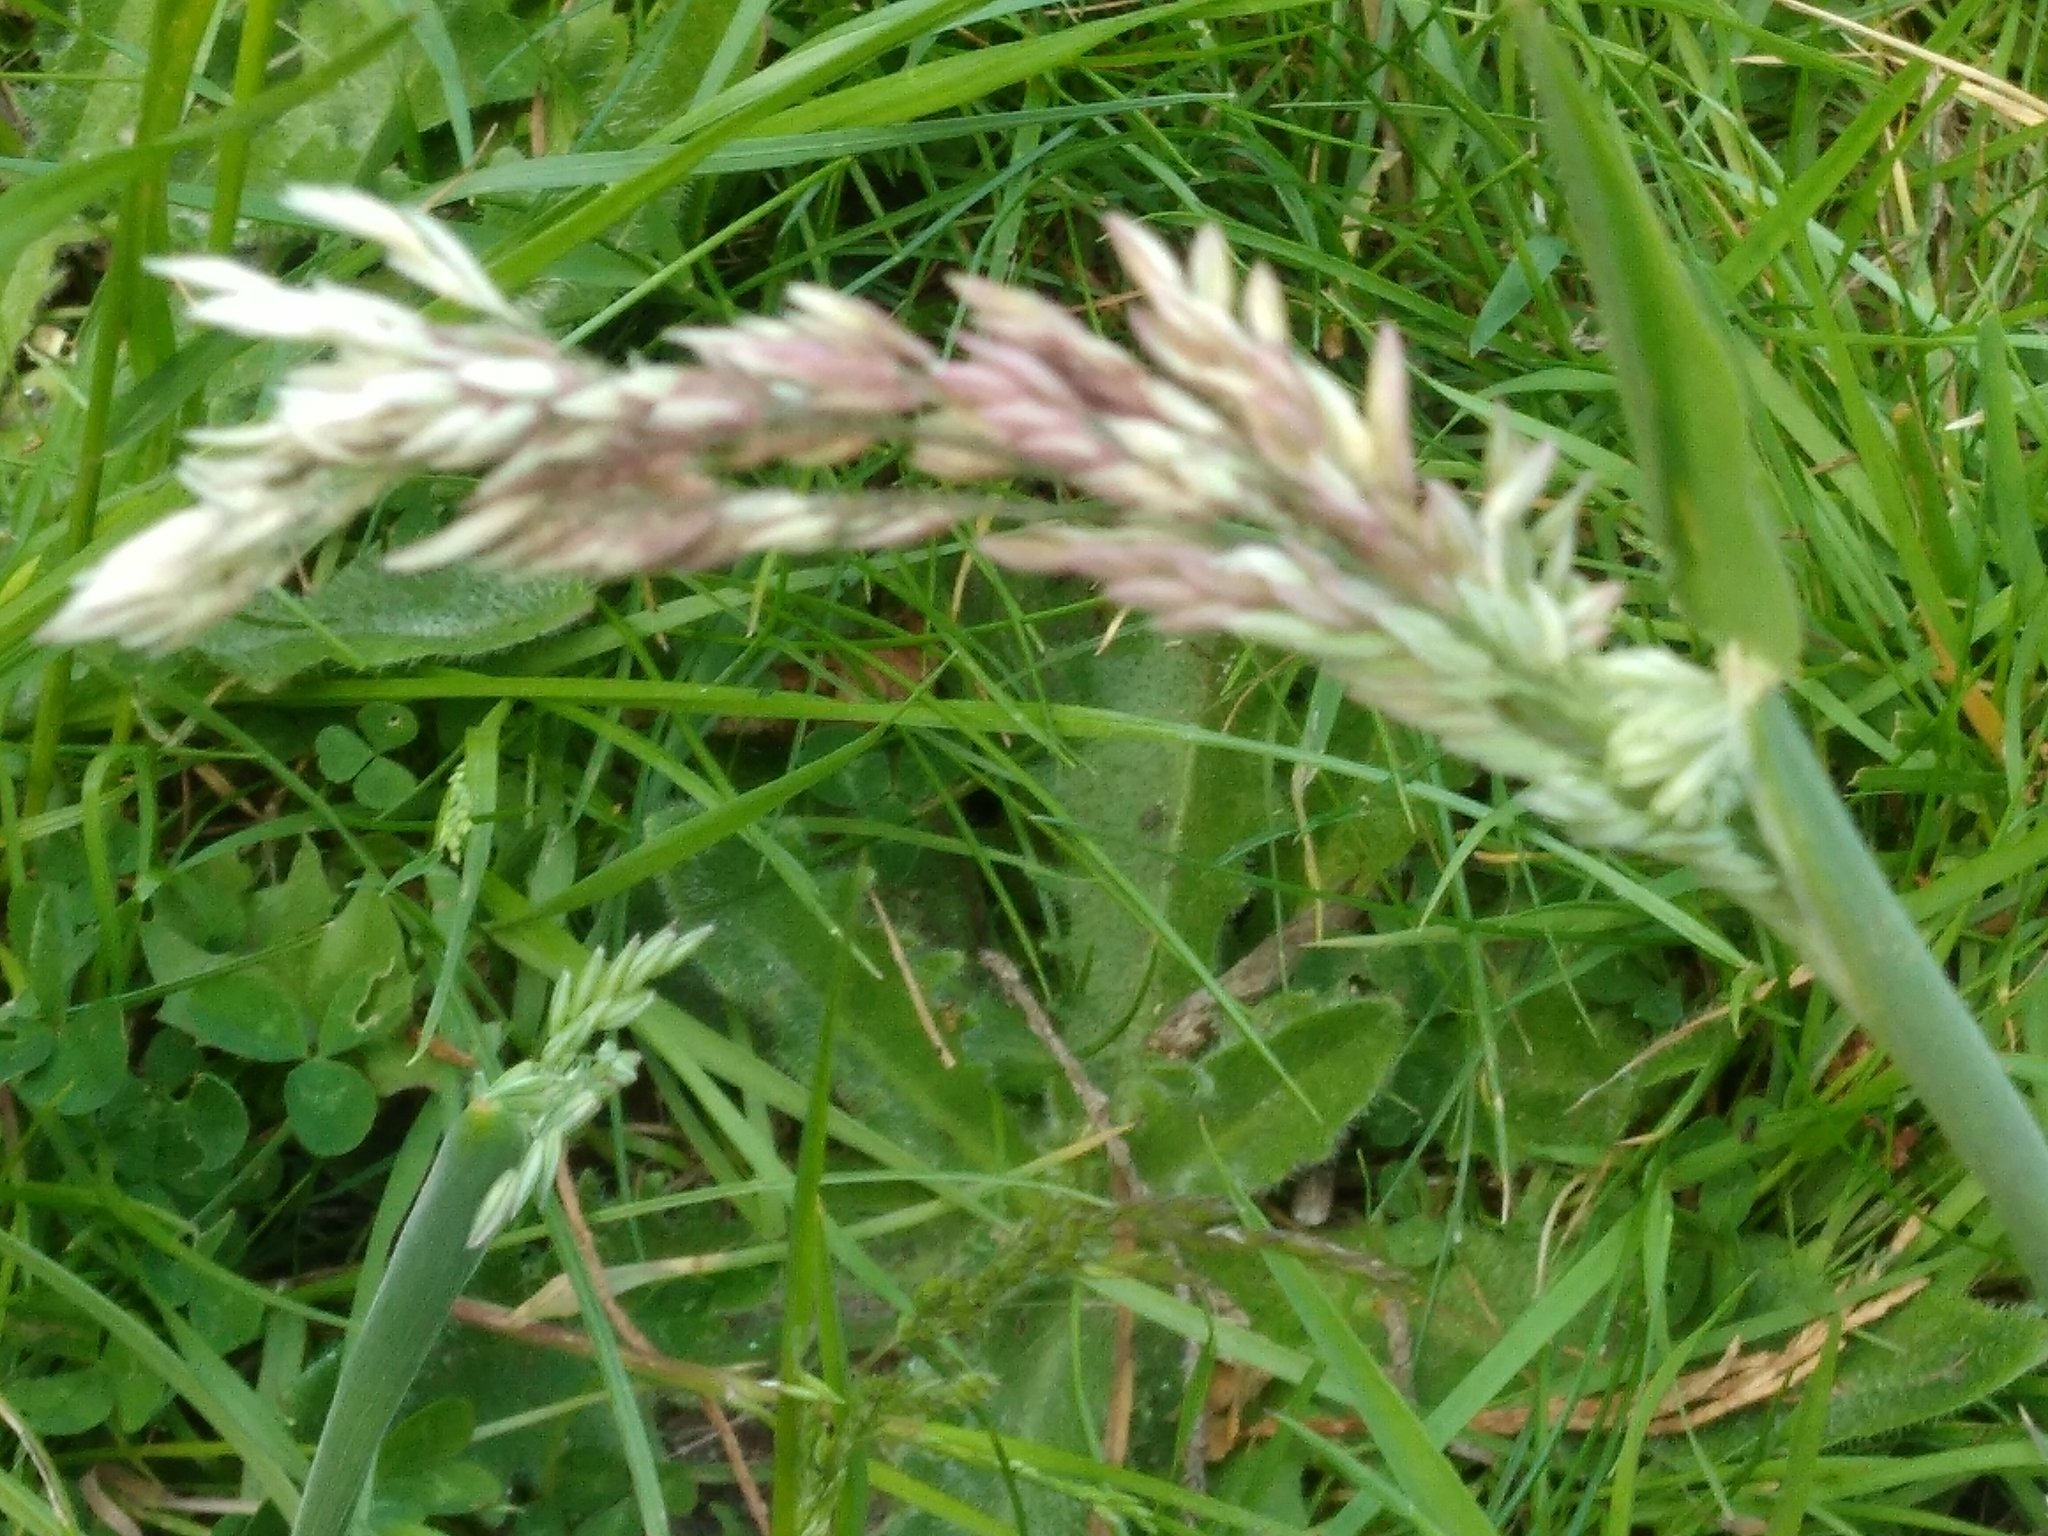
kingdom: Plantae
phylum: Tracheophyta
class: Liliopsida
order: Poales
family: Poaceae
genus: Holcus
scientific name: Holcus lanatus
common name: Yorkshire-fog
